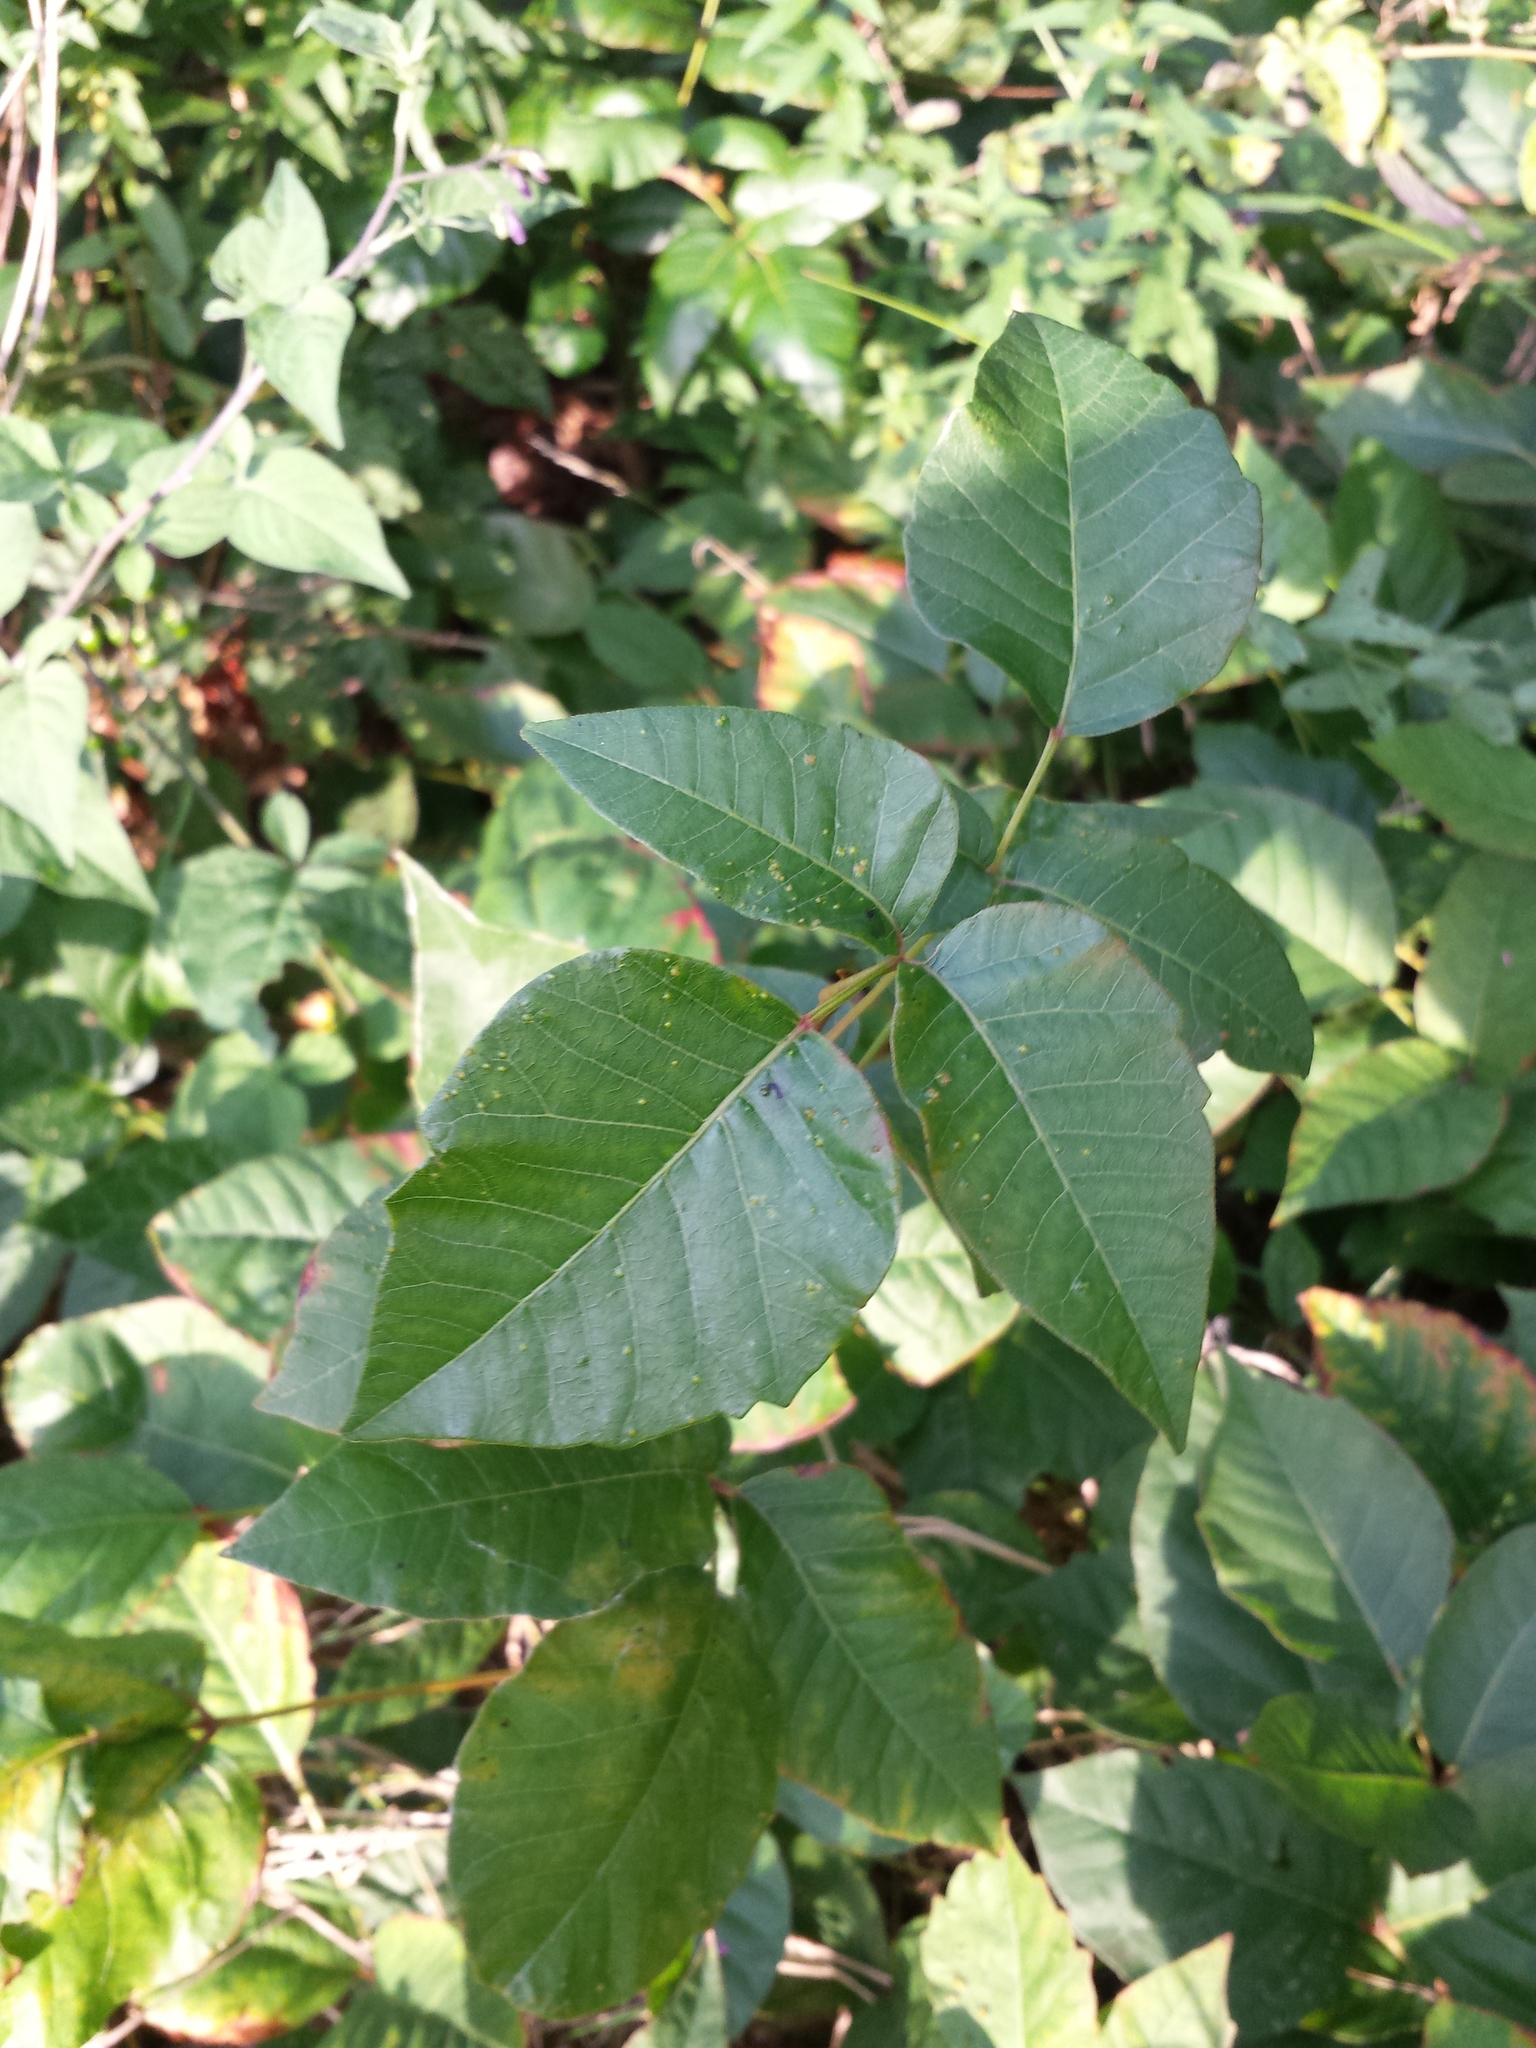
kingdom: Plantae
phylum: Tracheophyta
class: Magnoliopsida
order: Sapindales
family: Anacardiaceae
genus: Toxicodendron
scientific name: Toxicodendron radicans
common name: Poison ivy
